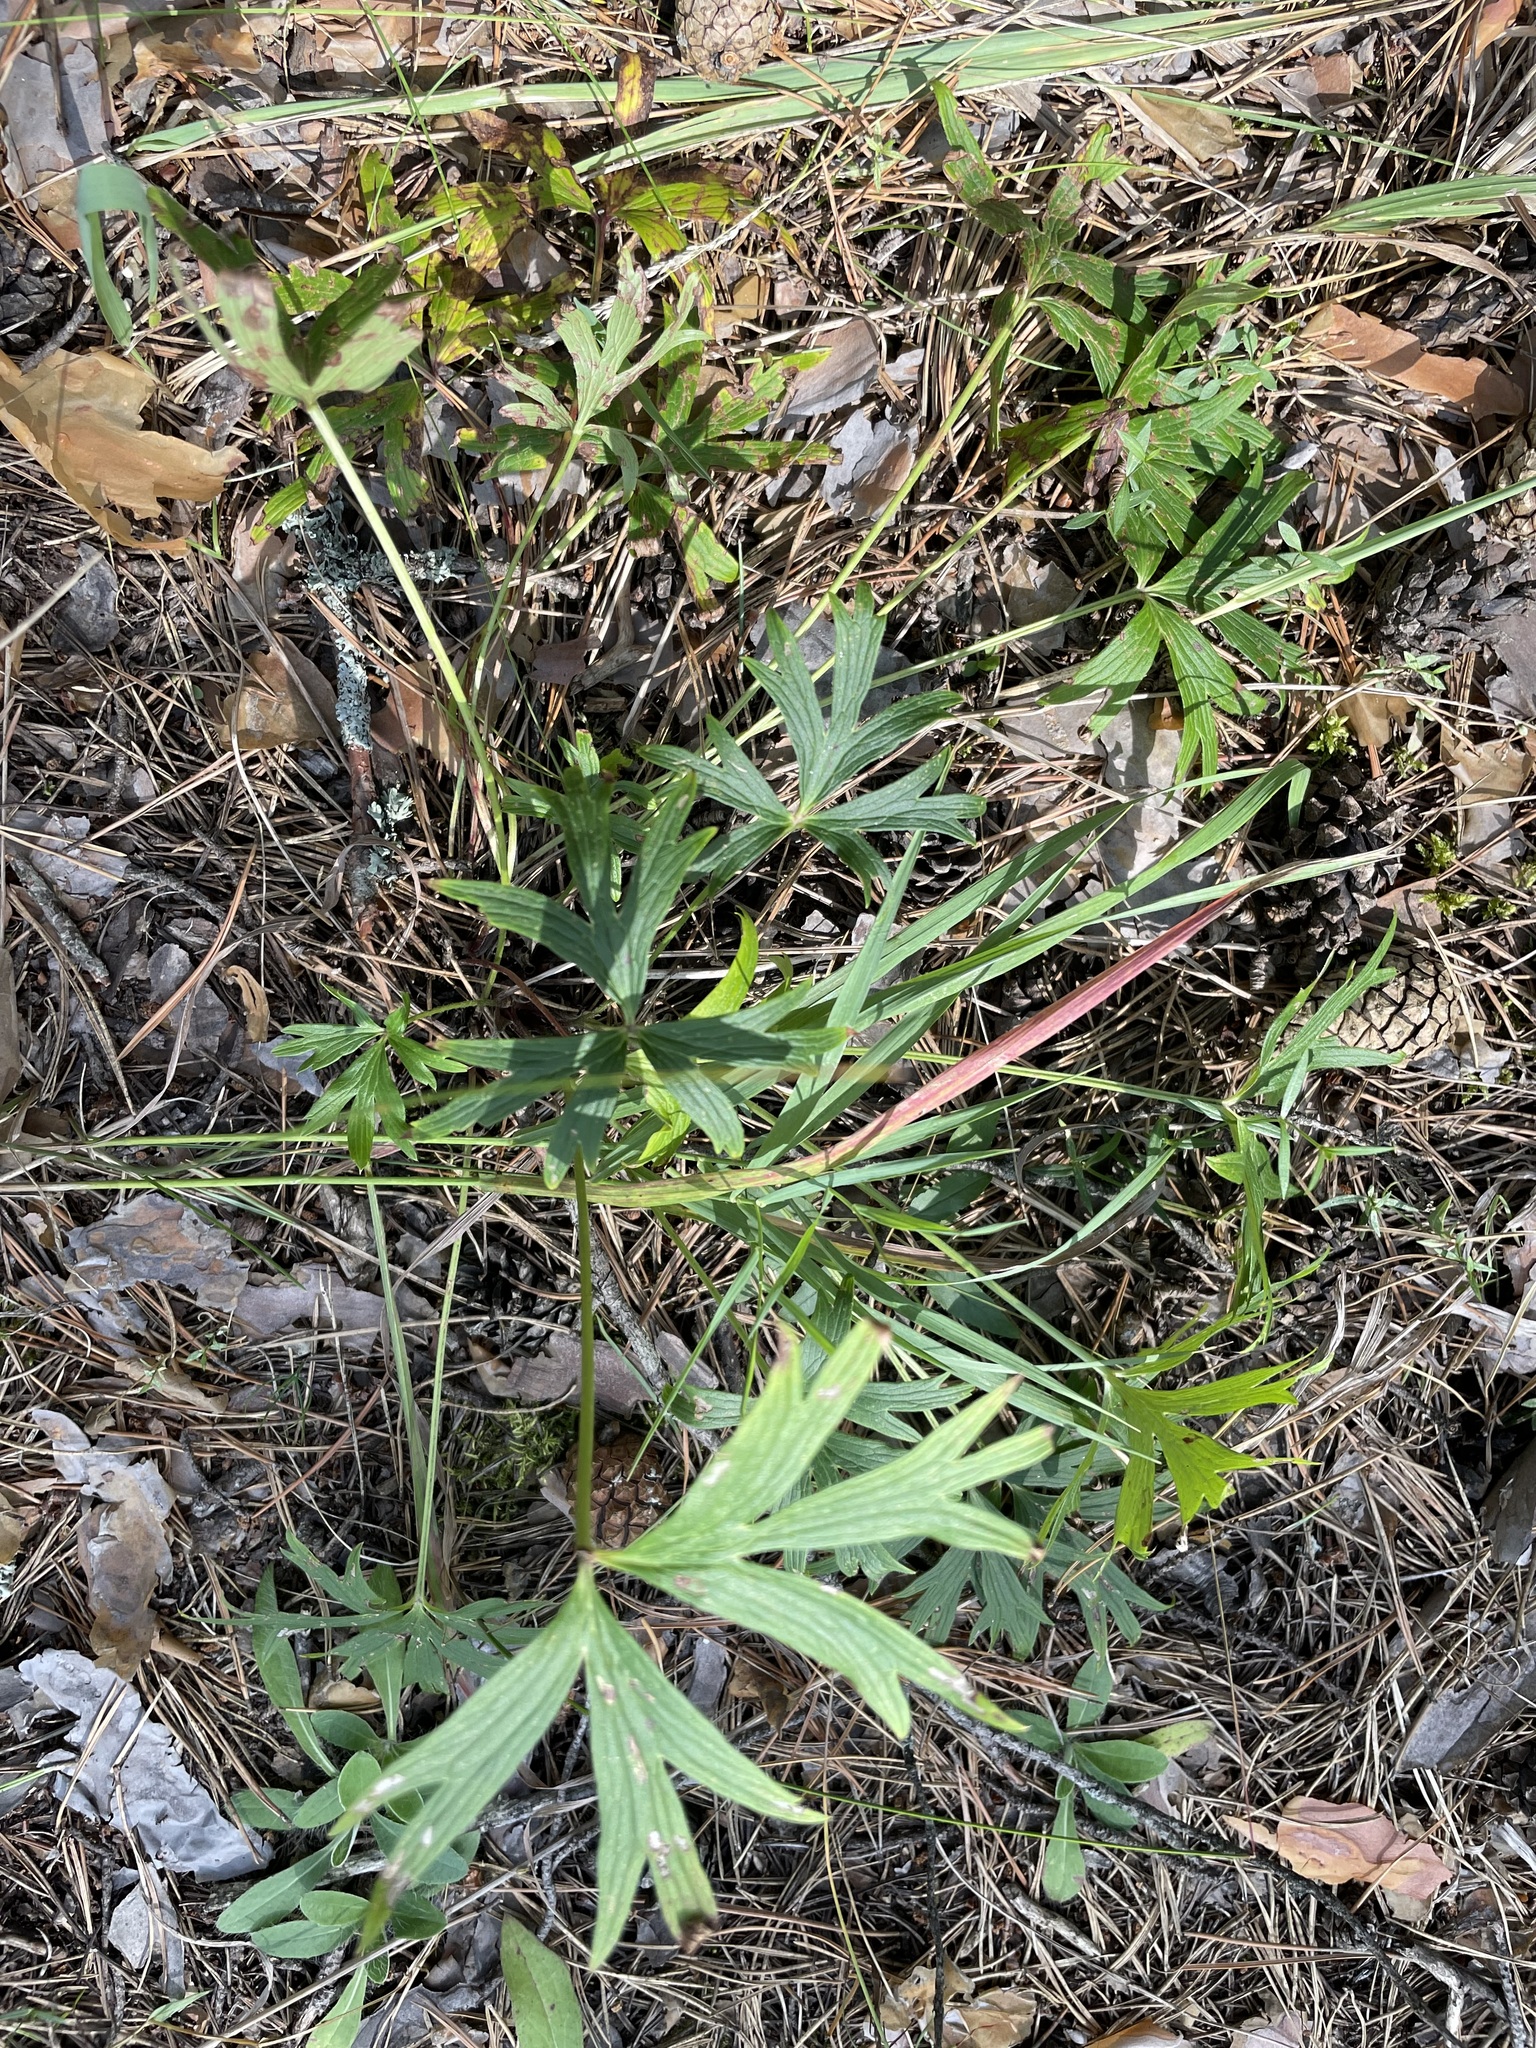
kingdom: Plantae
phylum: Tracheophyta
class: Magnoliopsida
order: Ranunculales
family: Ranunculaceae
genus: Pulsatilla
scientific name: Pulsatilla patens
